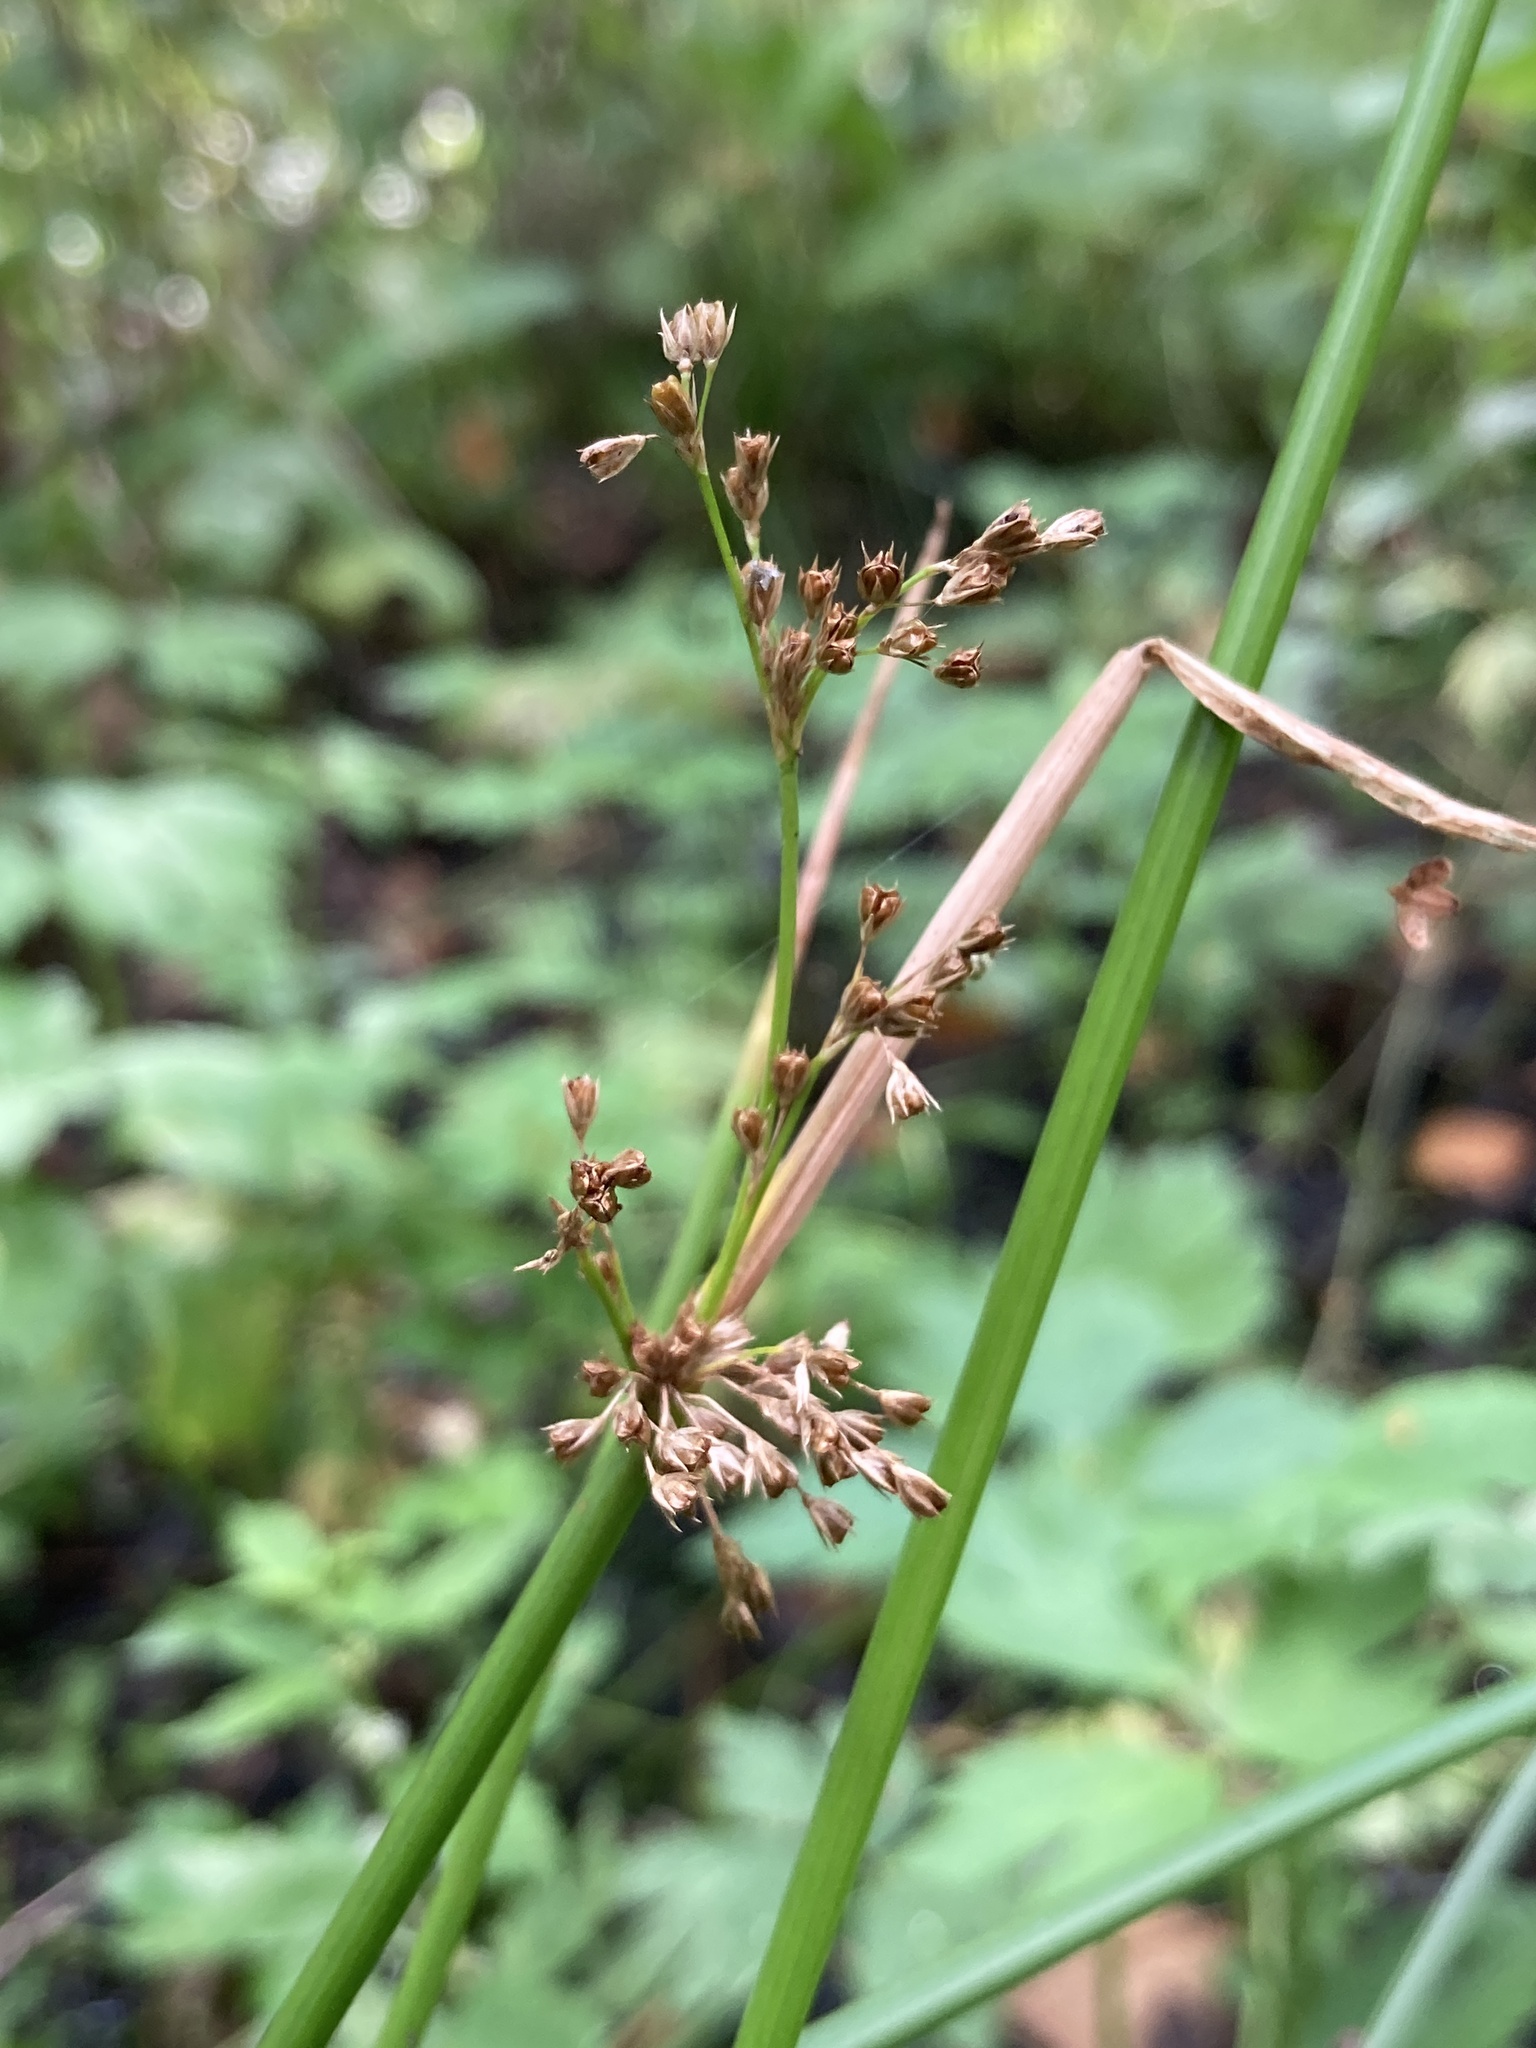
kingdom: Plantae
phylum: Tracheophyta
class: Liliopsida
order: Poales
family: Juncaceae
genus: Juncus
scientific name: Juncus effusus
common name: Soft rush
